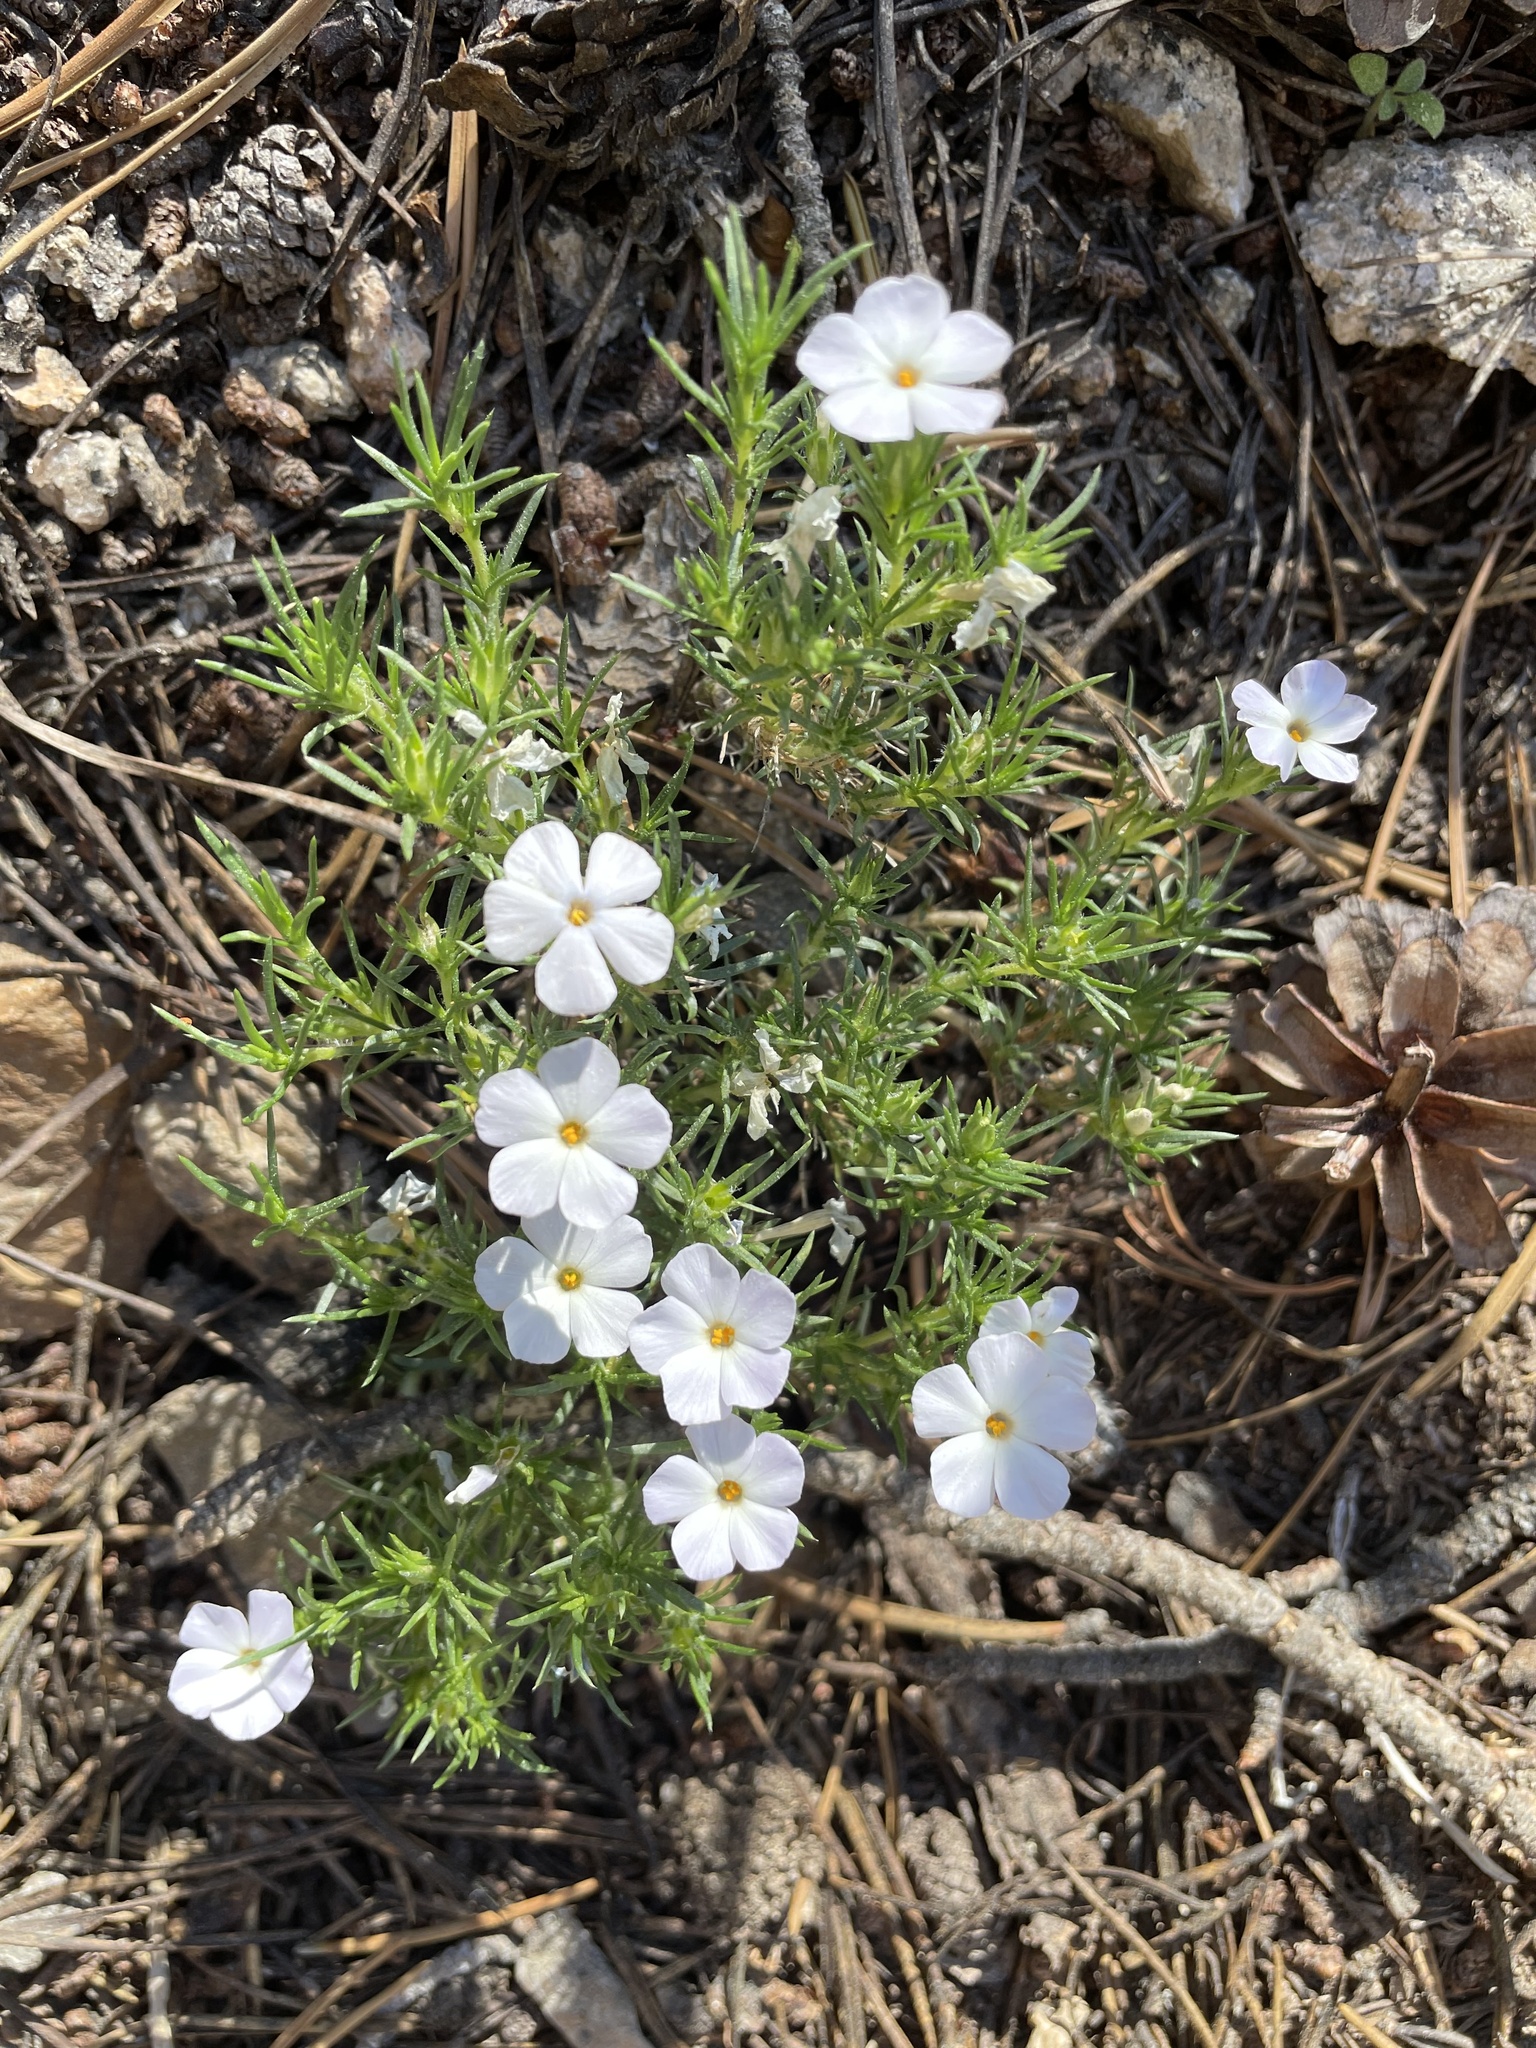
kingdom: Plantae
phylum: Tracheophyta
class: Magnoliopsida
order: Ericales
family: Polemoniaceae
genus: Phlox
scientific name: Phlox diffusa
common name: Mat phlox
